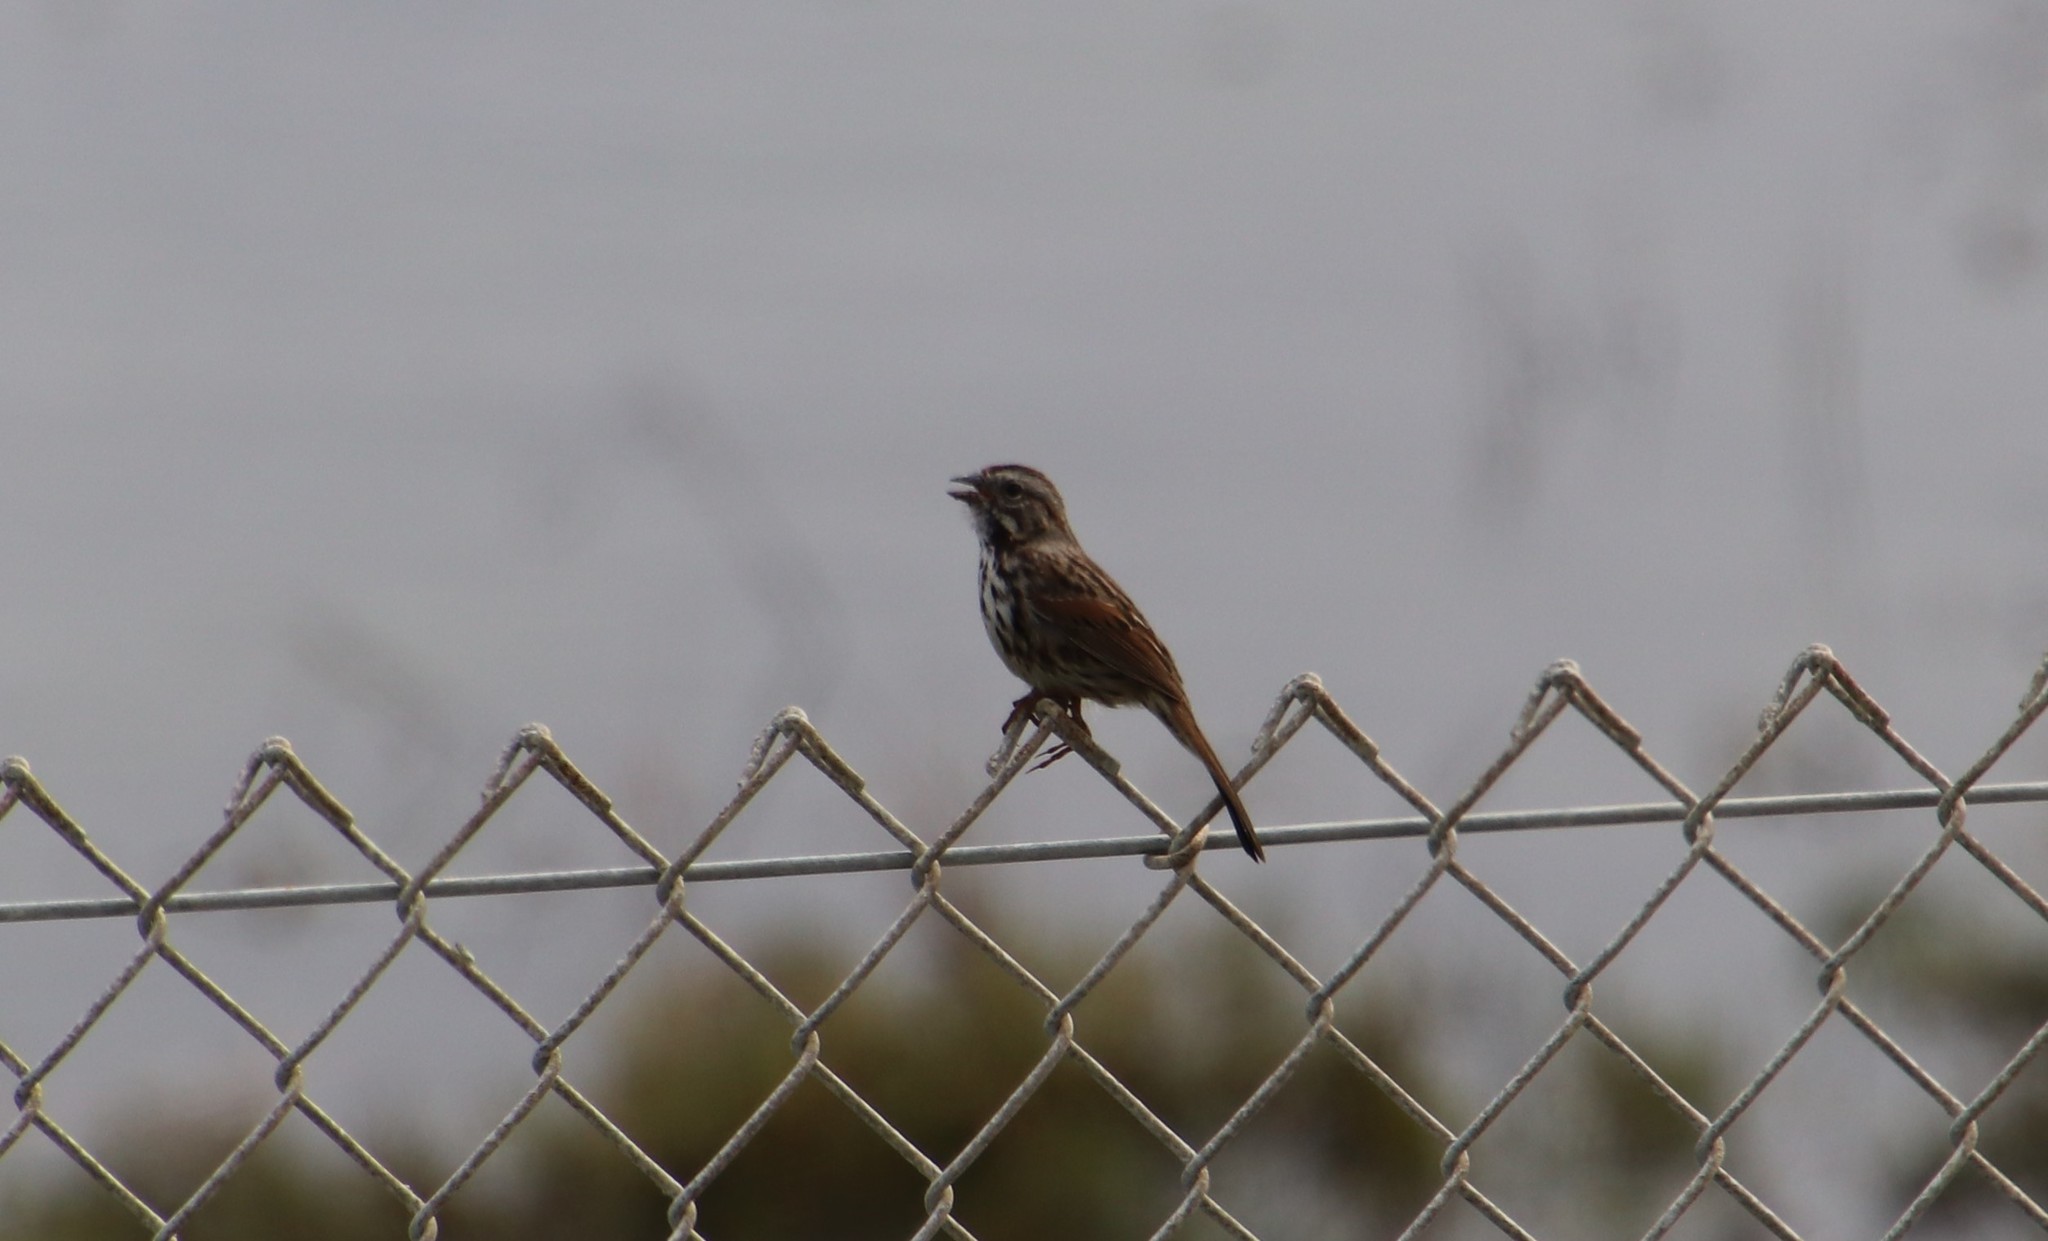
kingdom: Animalia
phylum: Chordata
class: Aves
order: Passeriformes
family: Passerellidae
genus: Melospiza
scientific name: Melospiza melodia
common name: Song sparrow
